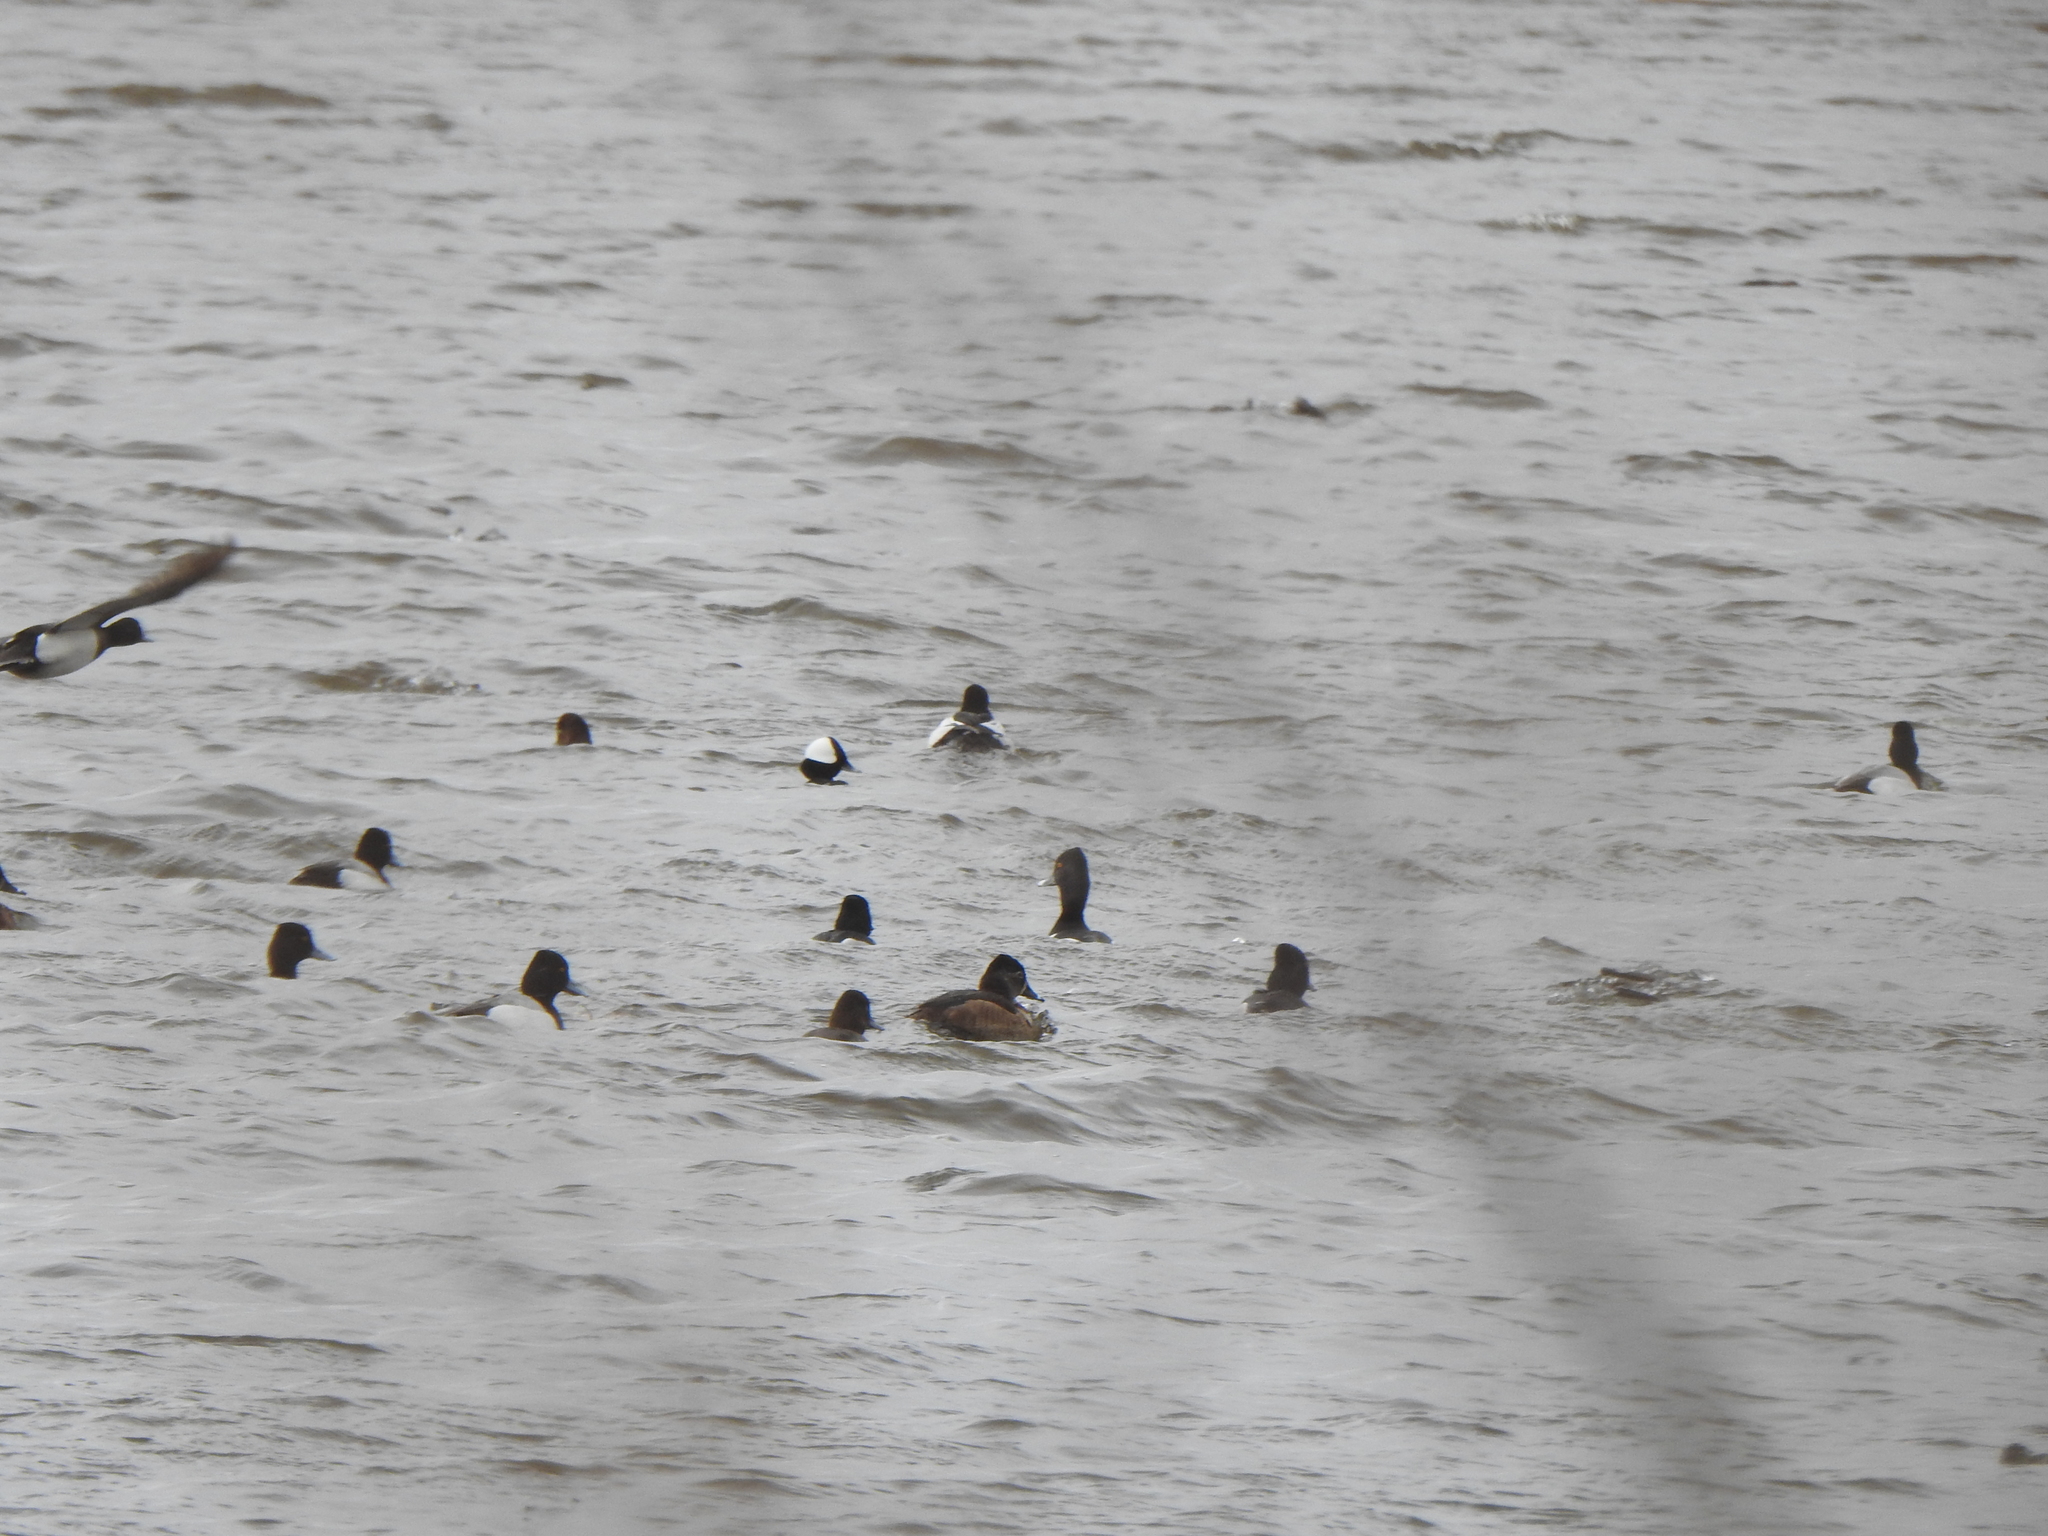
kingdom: Animalia
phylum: Chordata
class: Aves
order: Anseriformes
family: Anatidae
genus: Aythya
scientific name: Aythya affinis
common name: Lesser scaup
